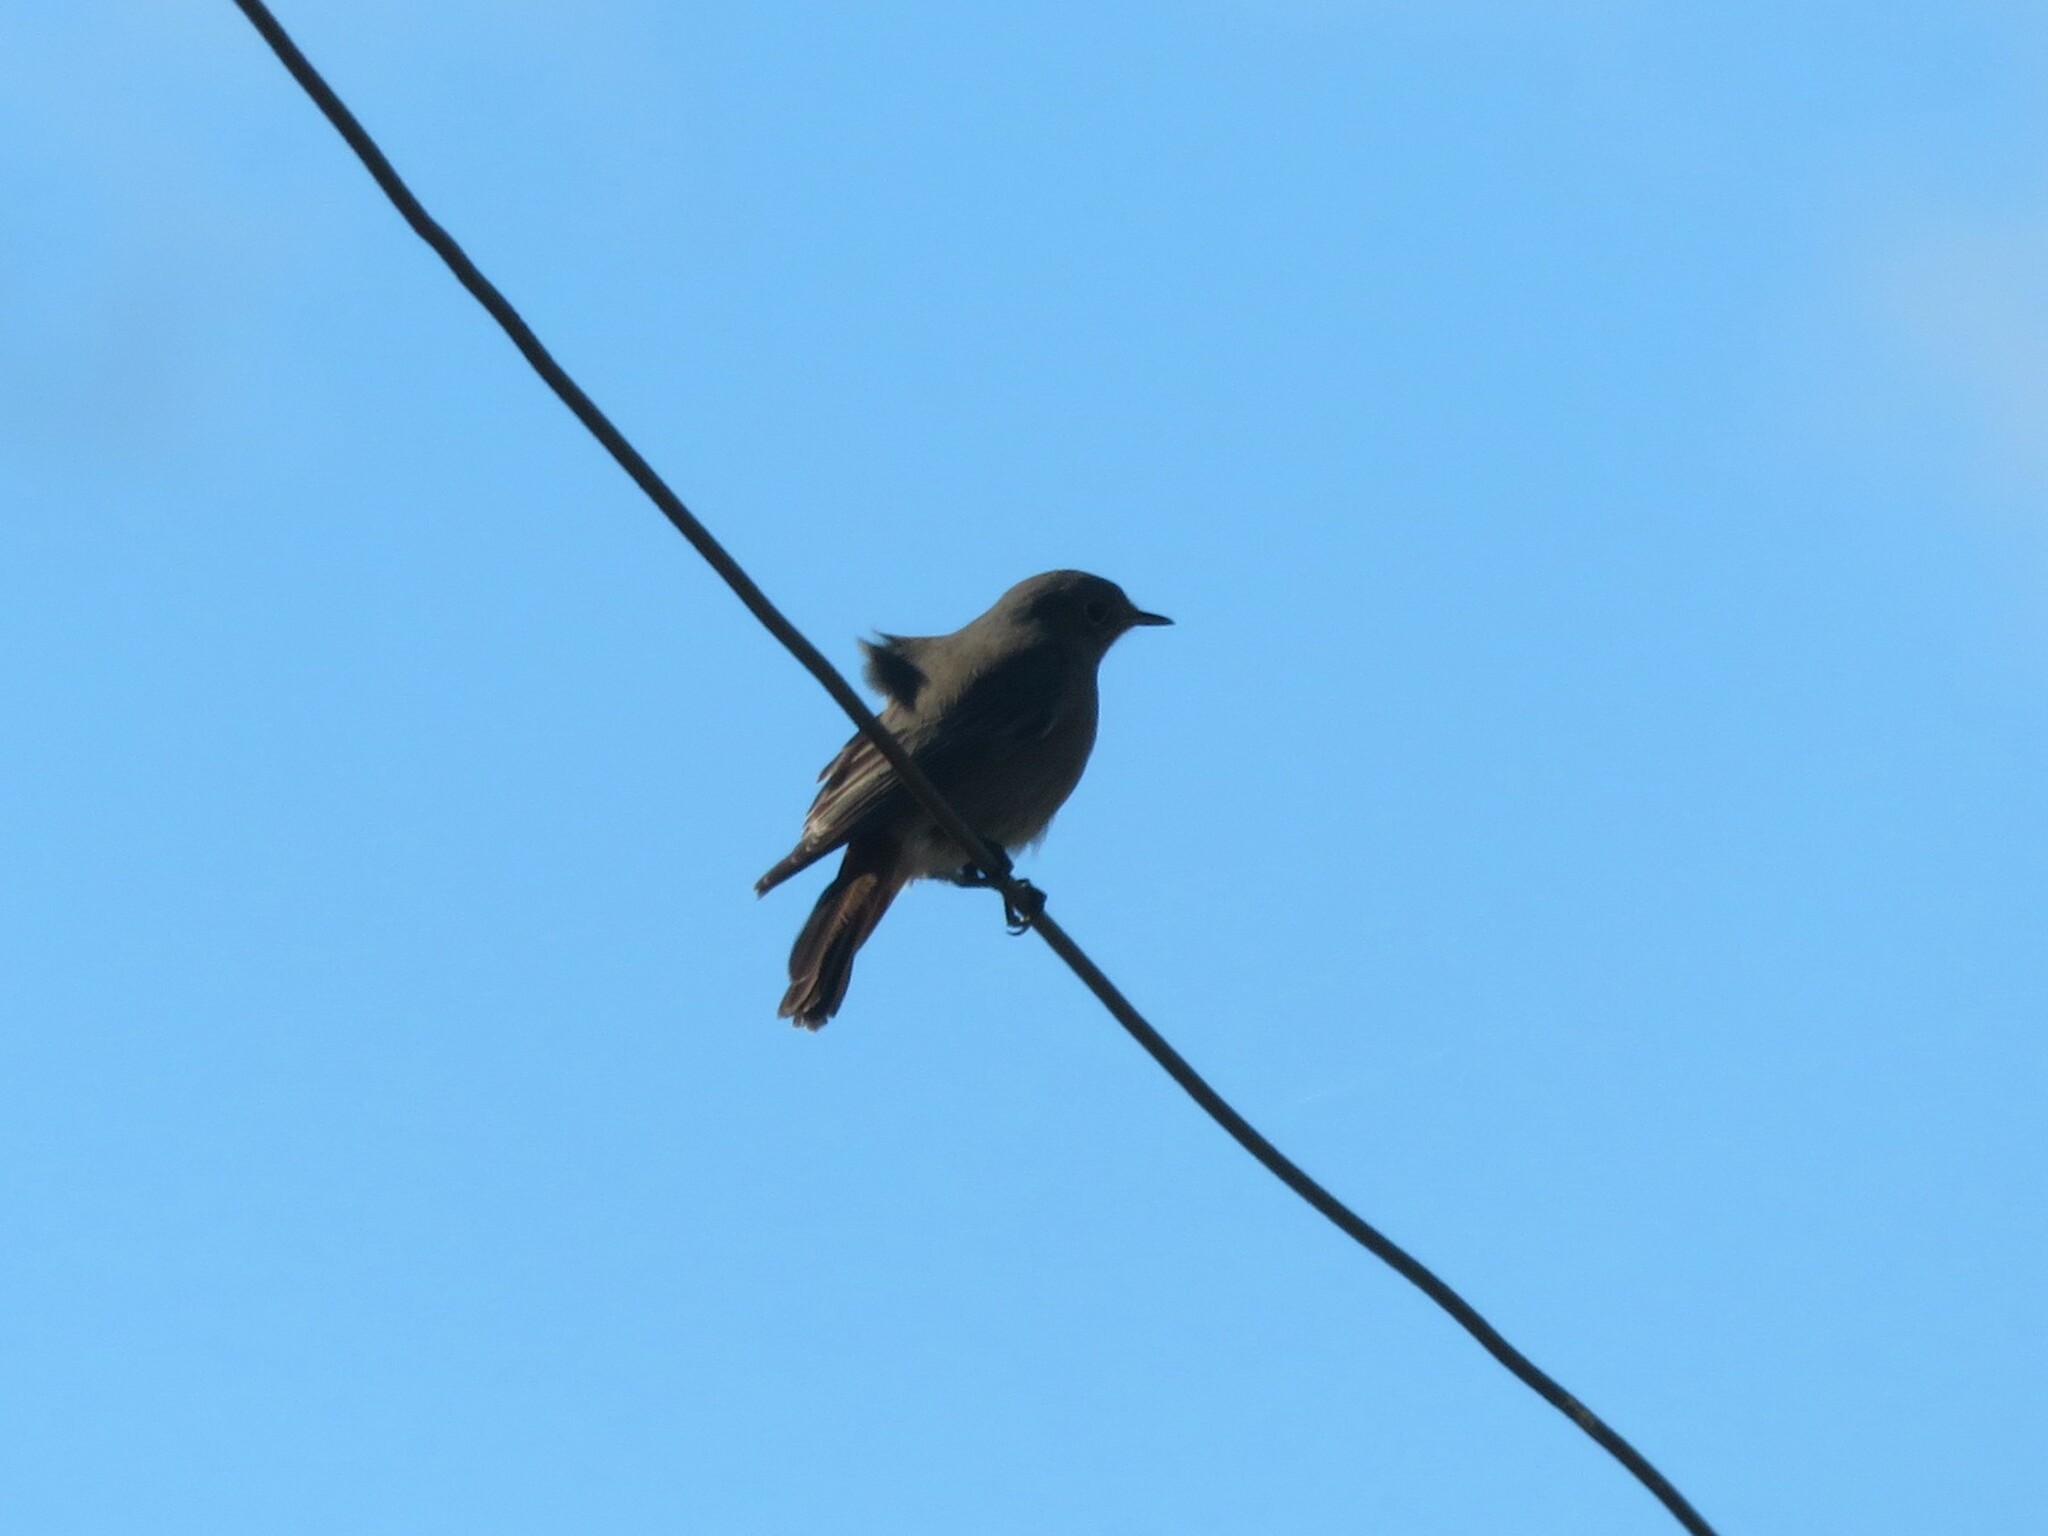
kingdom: Animalia
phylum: Chordata
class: Aves
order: Passeriformes
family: Muscicapidae
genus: Phoenicurus
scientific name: Phoenicurus ochruros
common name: Black redstart
